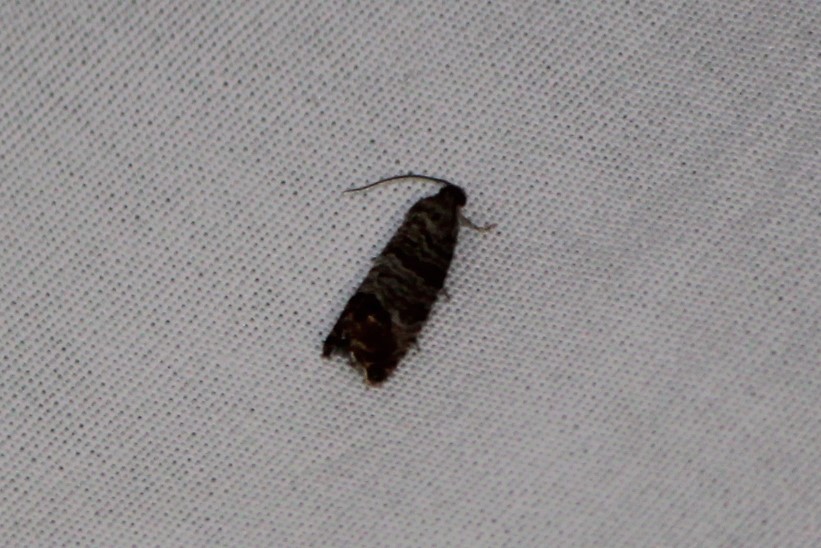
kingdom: Animalia
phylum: Arthropoda
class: Insecta
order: Lepidoptera
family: Tortricidae
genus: Cydia
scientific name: Cydia pomonella
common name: Codling moth
